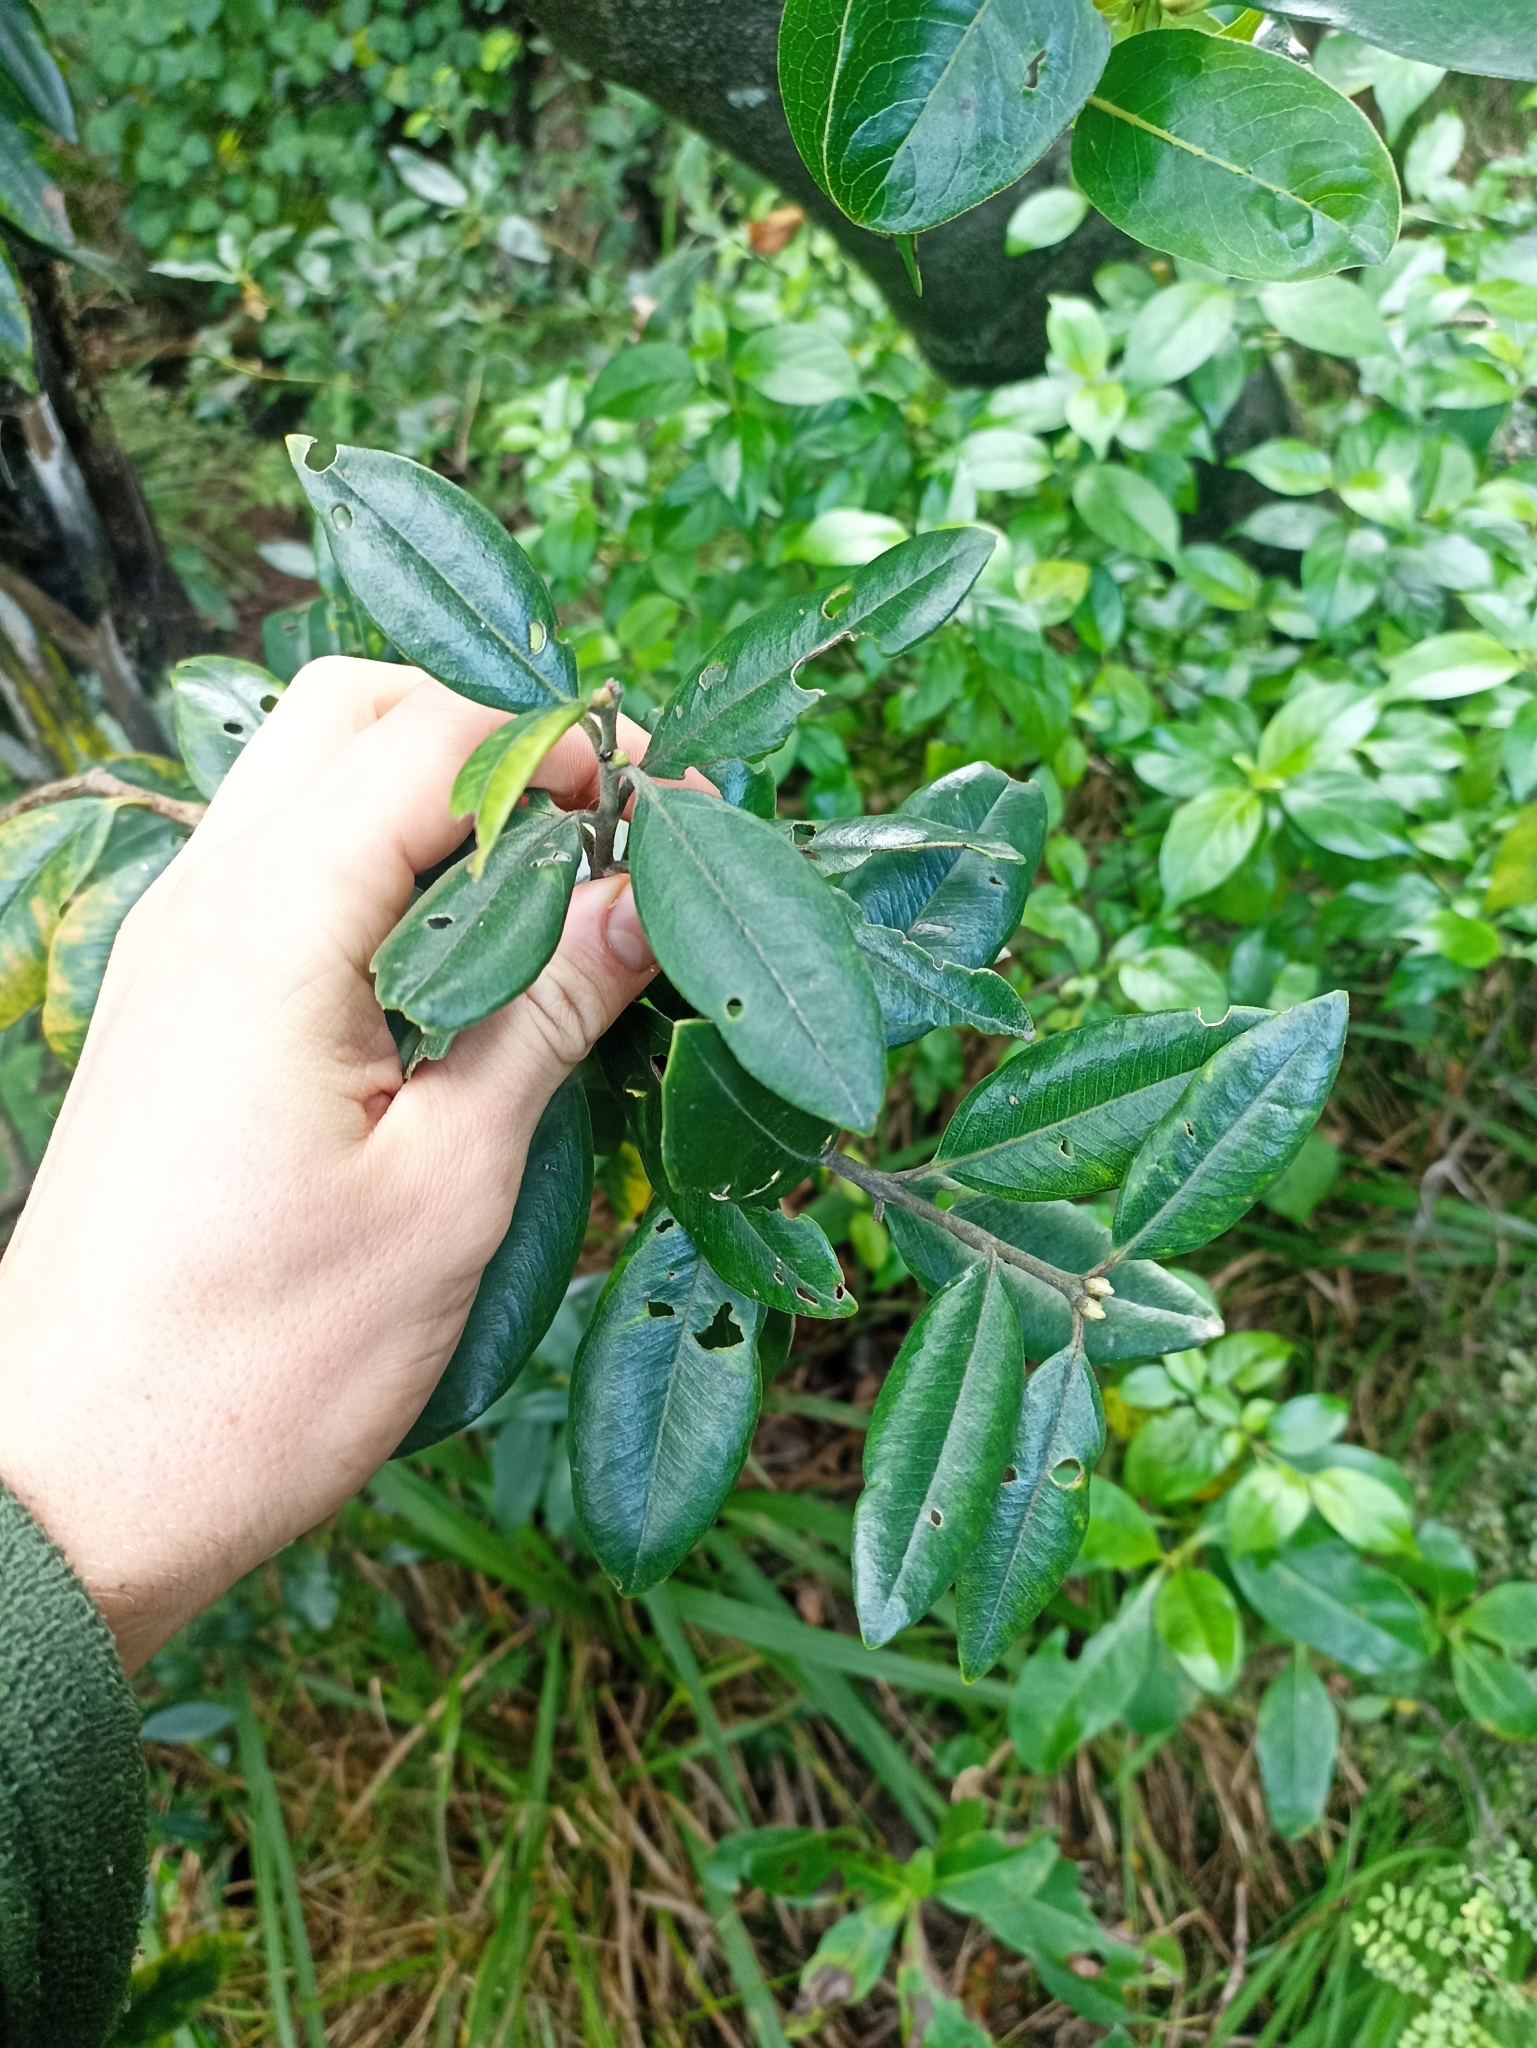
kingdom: Plantae
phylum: Tracheophyta
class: Magnoliopsida
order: Myrtales
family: Myrtaceae
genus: Metrosideros
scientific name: Metrosideros excelsa
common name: New zealand christmastree
